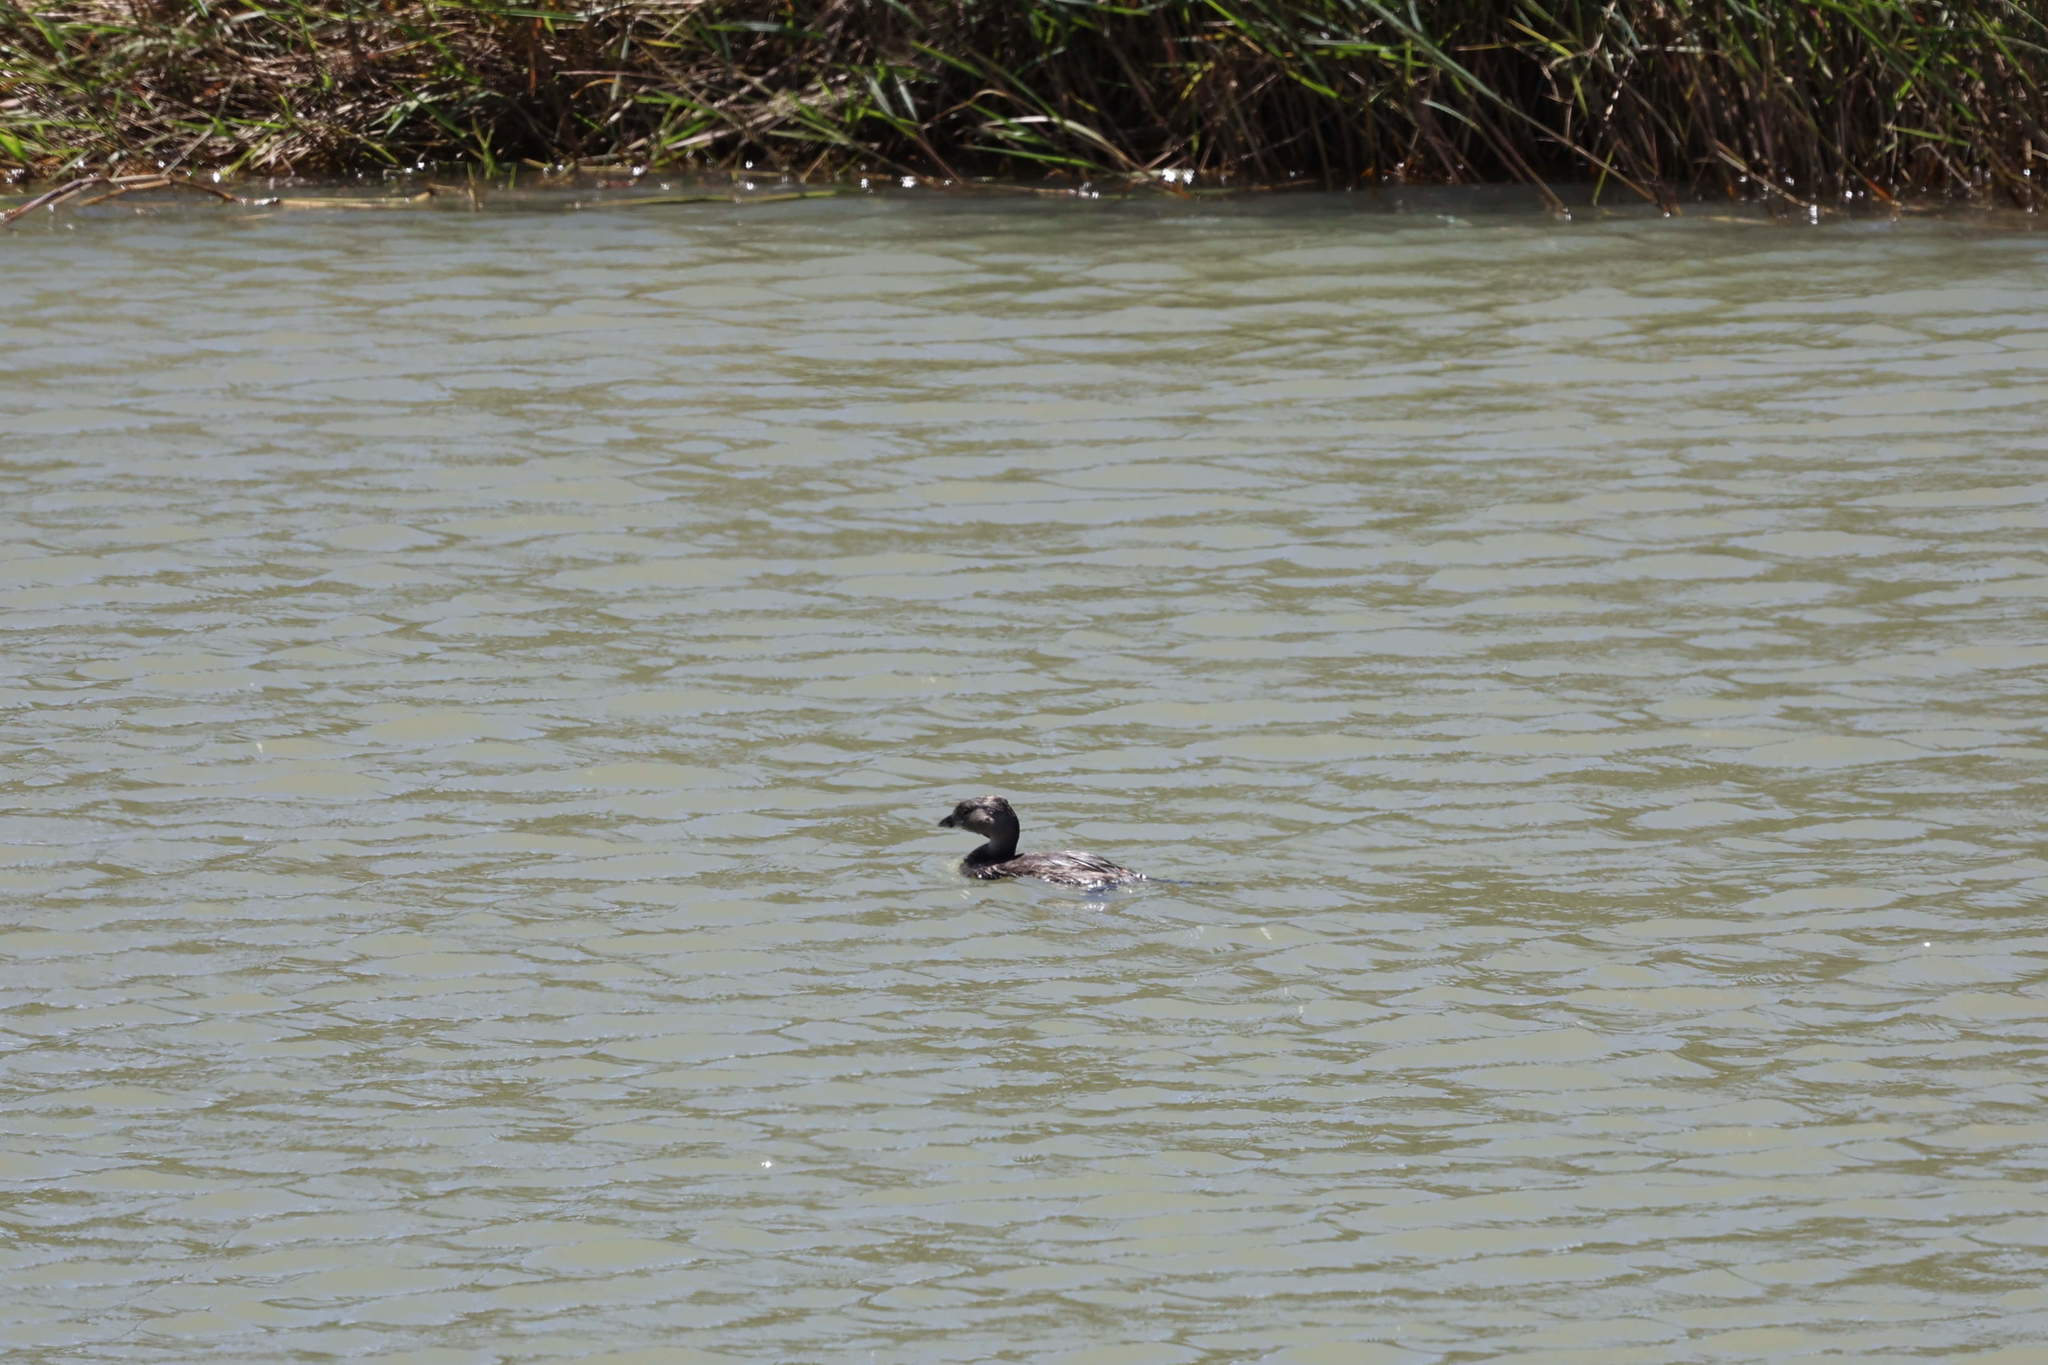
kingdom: Animalia
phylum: Chordata
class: Aves
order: Podicipediformes
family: Podicipedidae
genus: Podilymbus
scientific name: Podilymbus podiceps
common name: Pied-billed grebe
